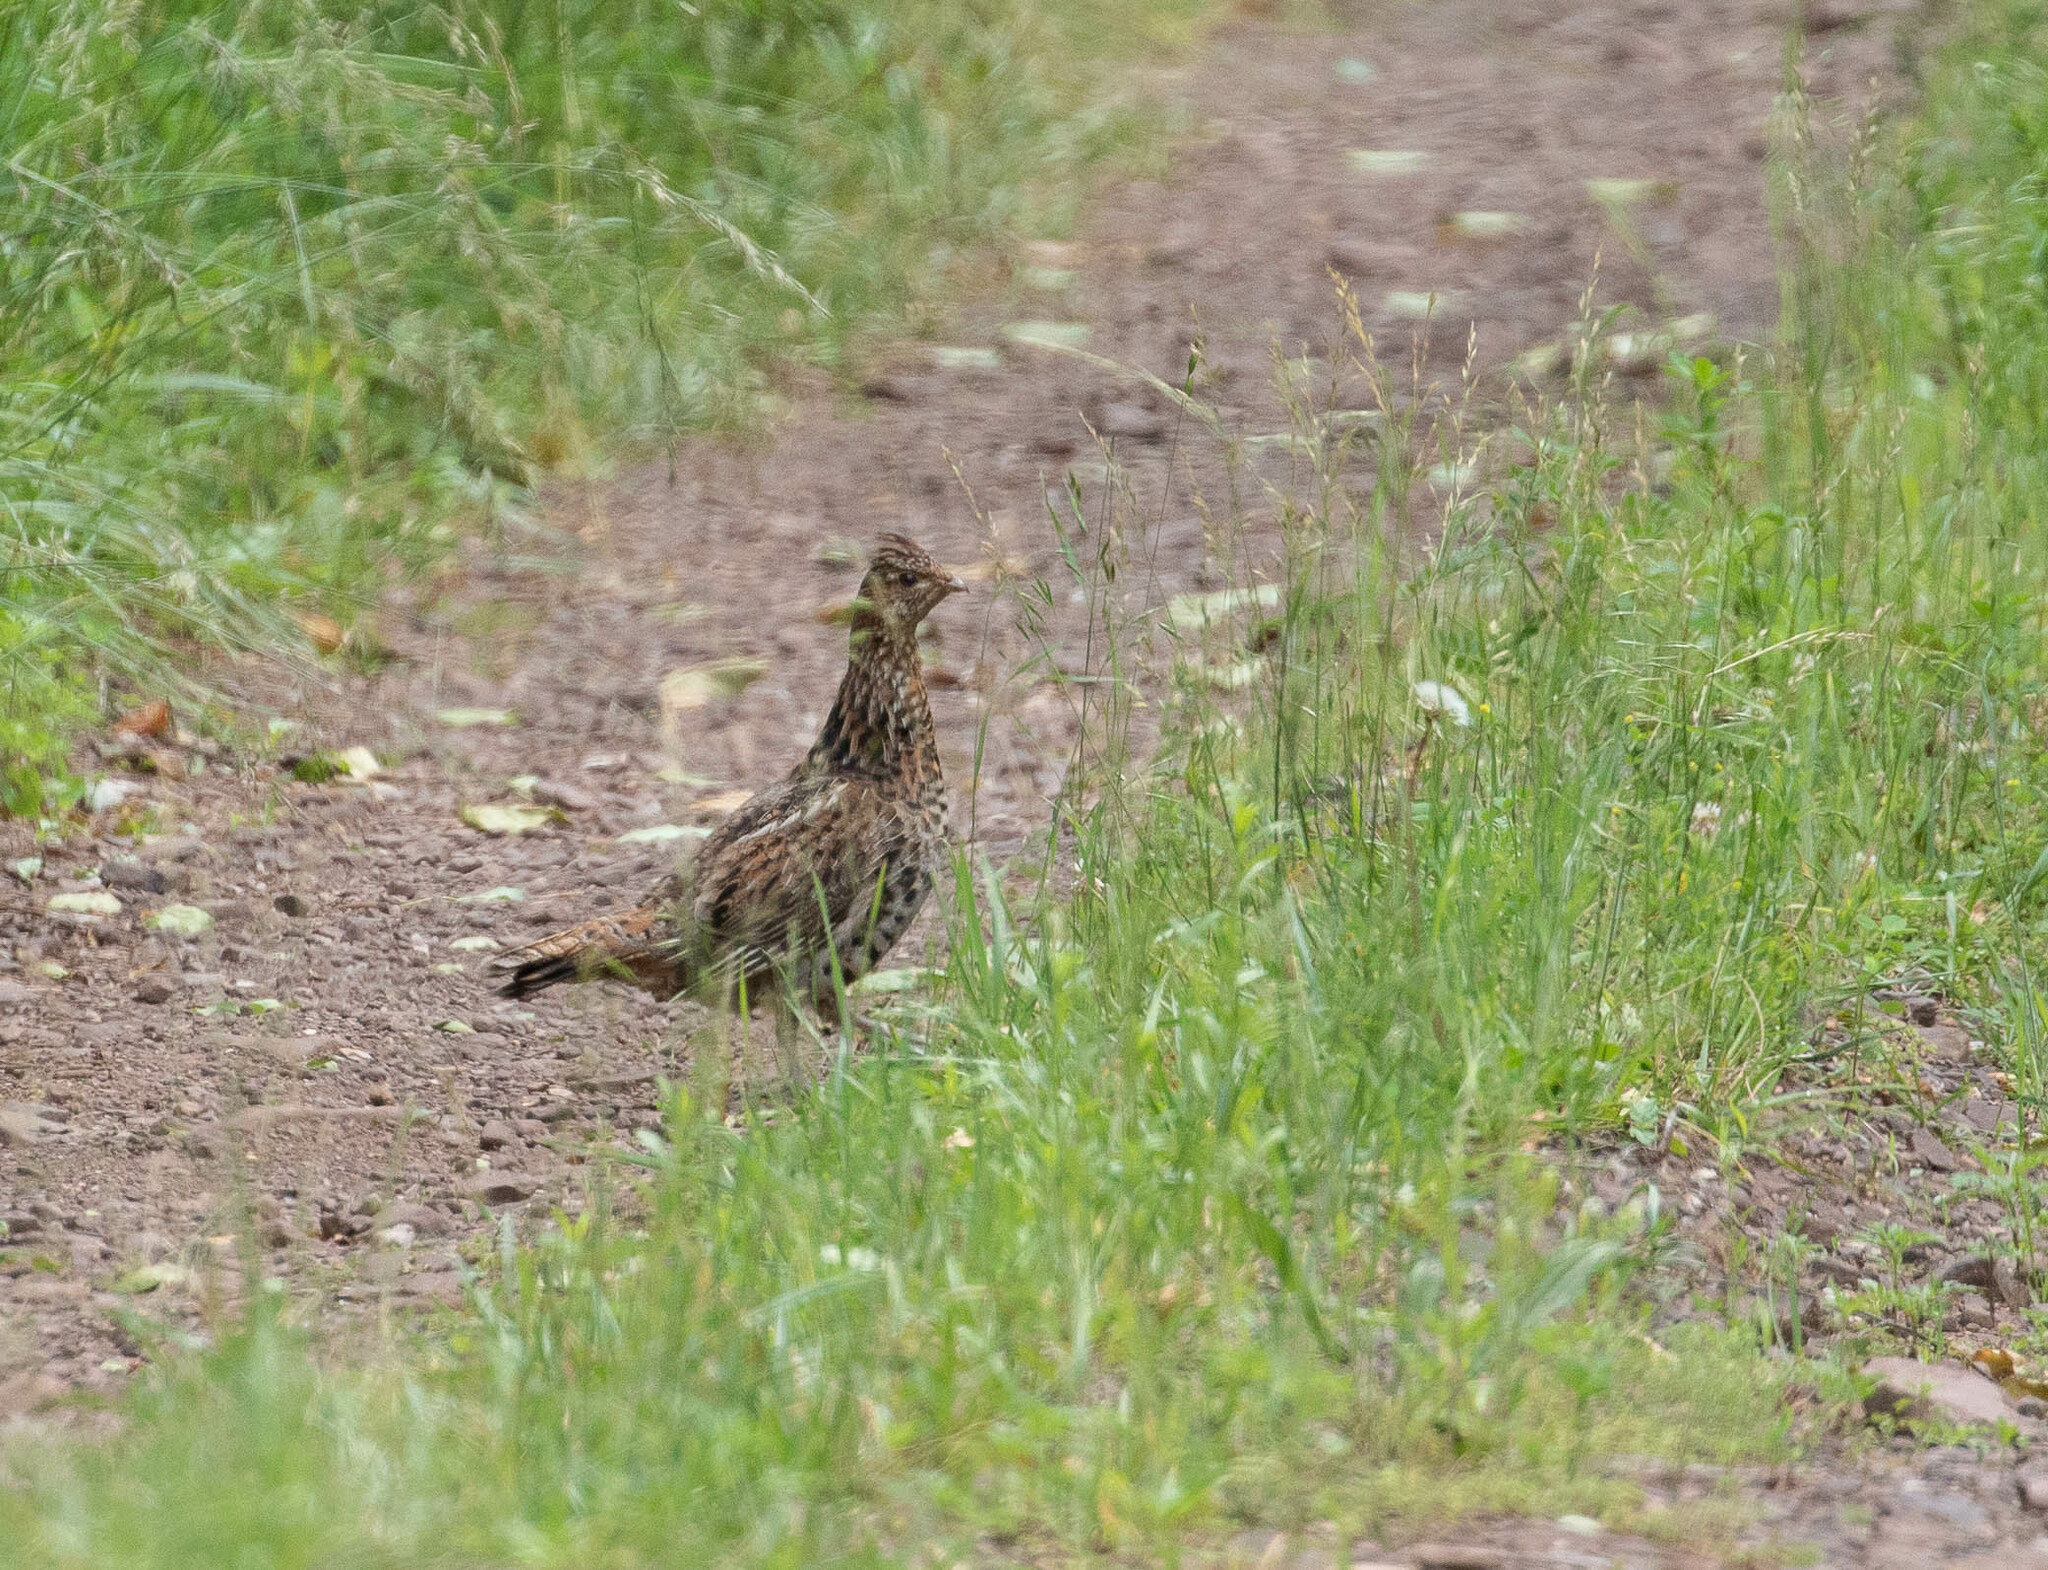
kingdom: Animalia
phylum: Chordata
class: Aves
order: Galliformes
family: Phasianidae
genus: Bonasa
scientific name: Bonasa umbellus
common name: Ruffed grouse
